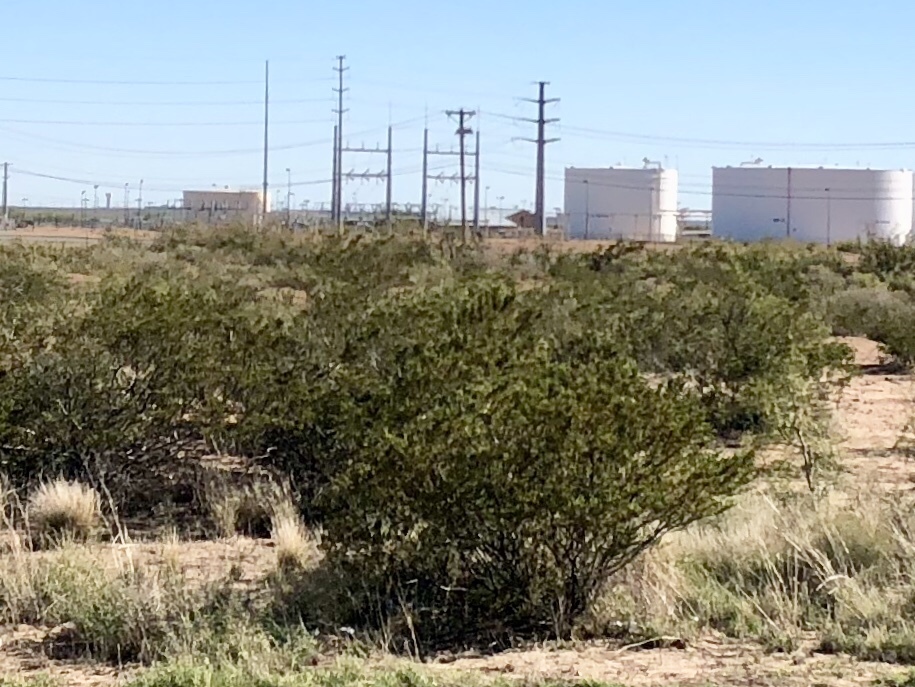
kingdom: Plantae
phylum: Tracheophyta
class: Magnoliopsida
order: Zygophyllales
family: Zygophyllaceae
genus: Larrea
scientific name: Larrea tridentata
